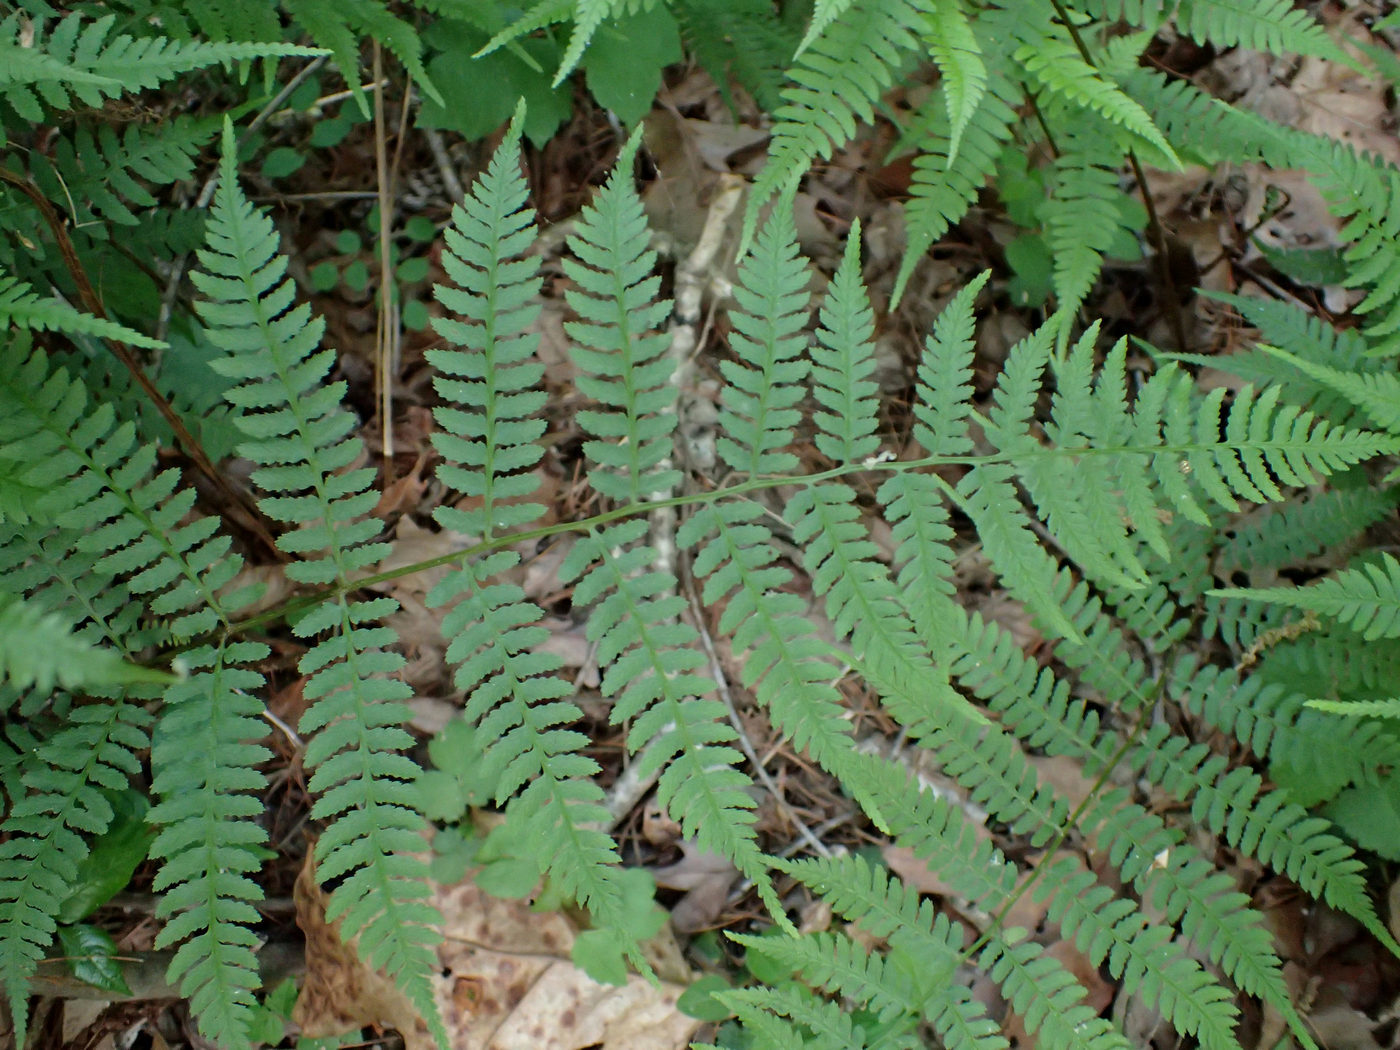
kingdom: Plantae
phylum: Tracheophyta
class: Polypodiopsida
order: Polypodiales
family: Athyriaceae
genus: Athyrium
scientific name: Athyrium asplenioides
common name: Southern lady fern
